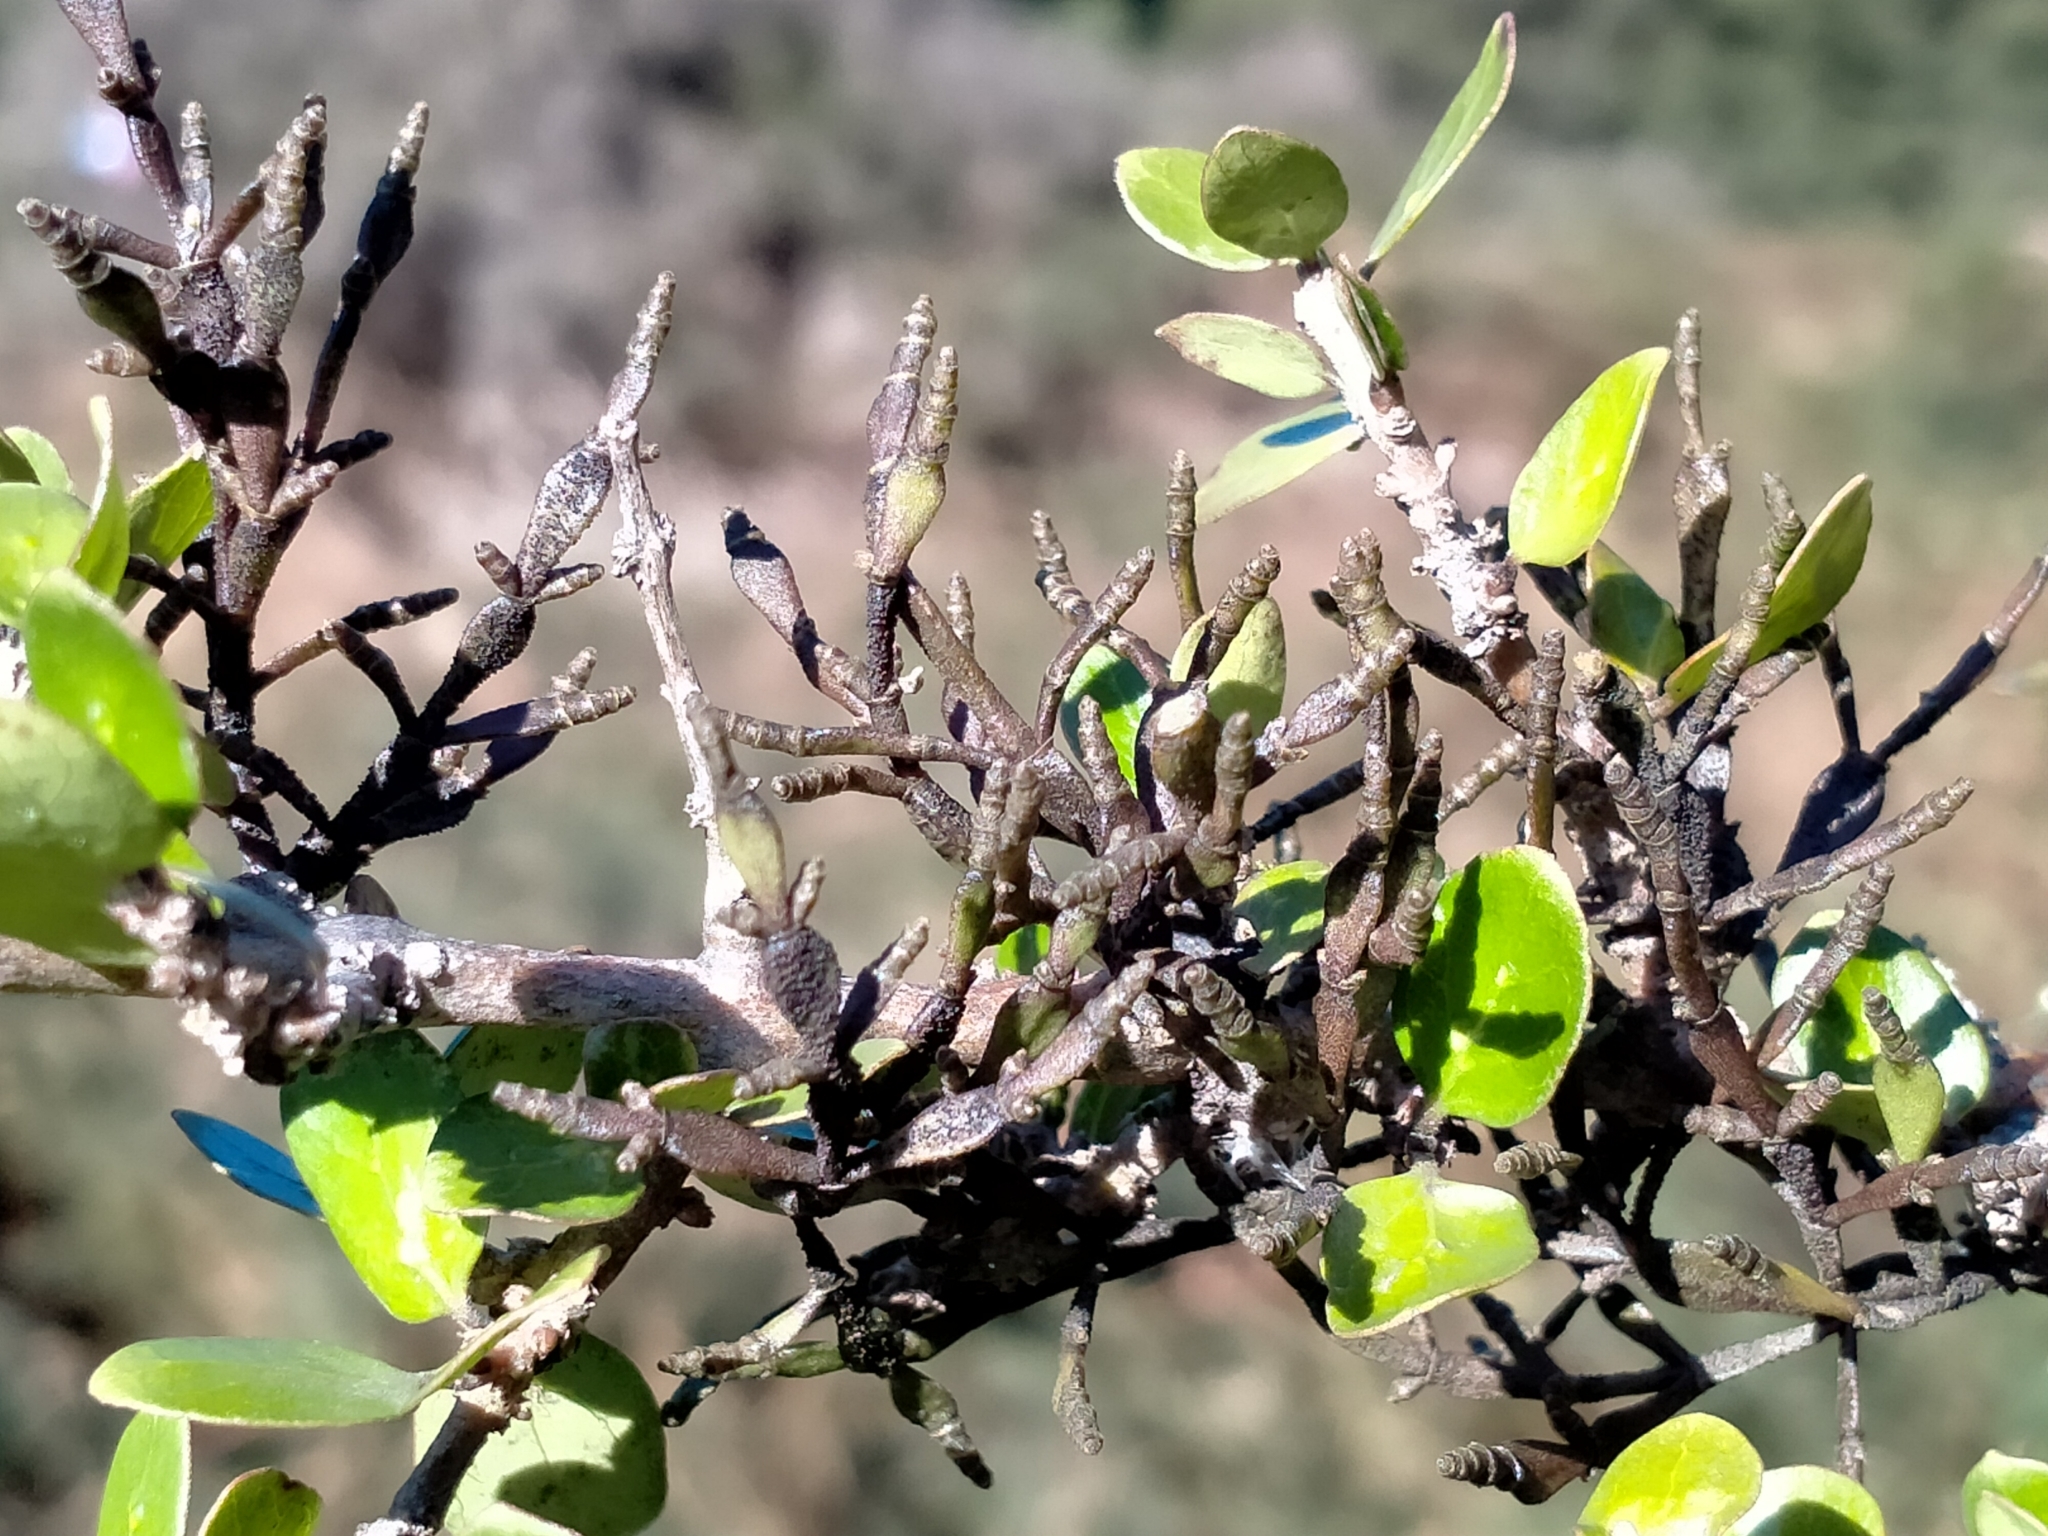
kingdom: Plantae
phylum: Tracheophyta
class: Magnoliopsida
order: Santalales
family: Viscaceae
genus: Korthalsella
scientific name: Korthalsella clavata
